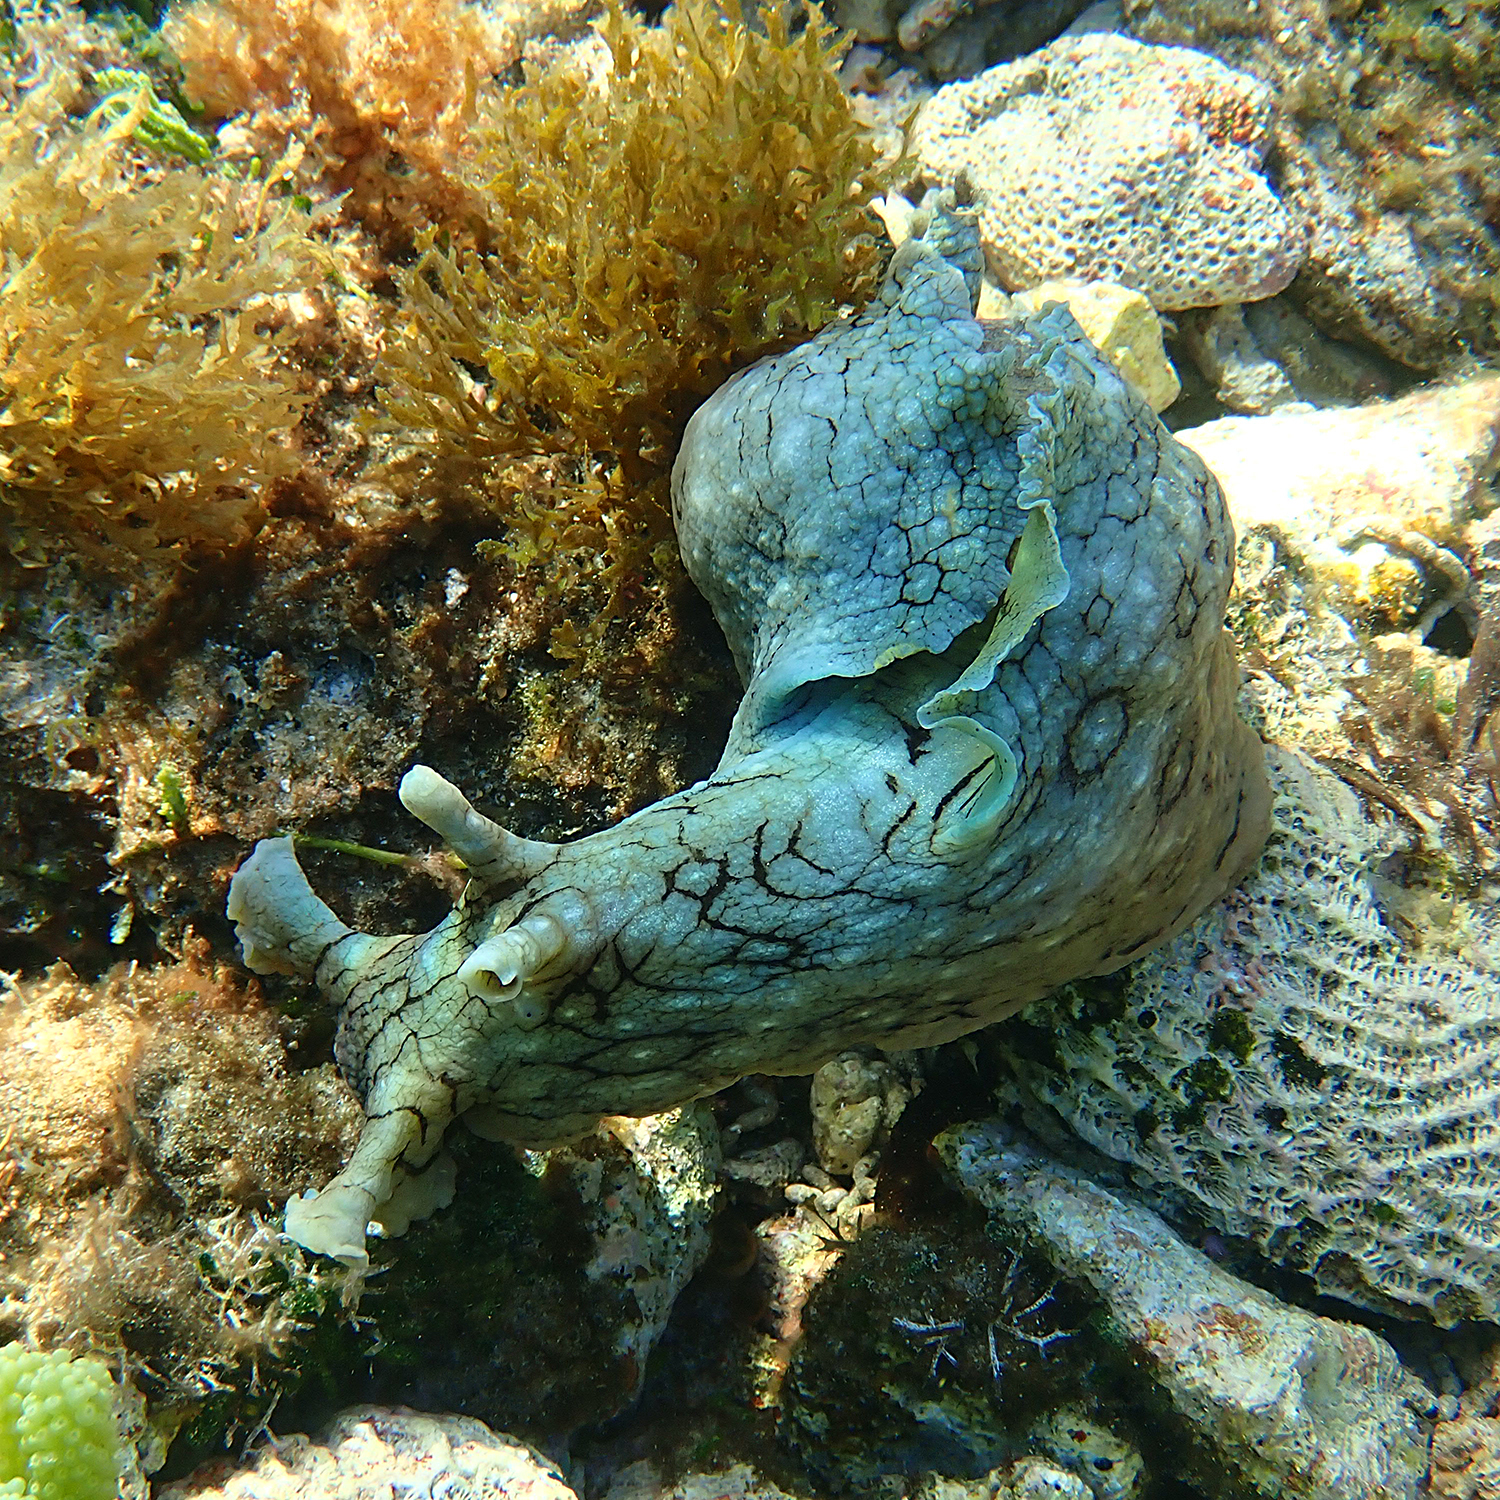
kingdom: Animalia
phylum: Mollusca
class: Gastropoda
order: Aplysiida
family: Aplysiidae
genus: Aplysia
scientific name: Aplysia argus
